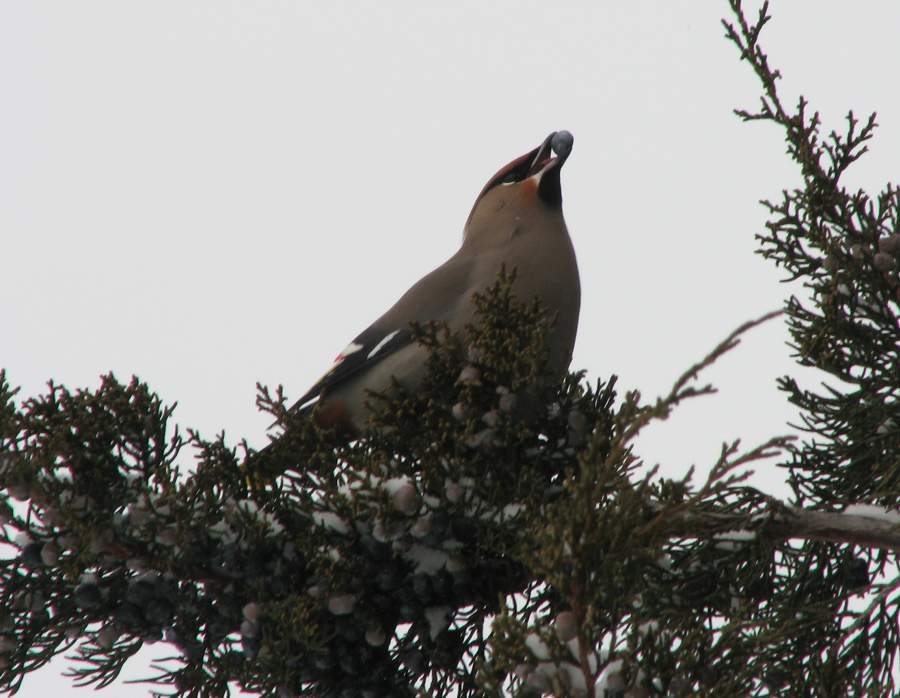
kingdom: Animalia
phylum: Chordata
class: Aves
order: Passeriformes
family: Bombycillidae
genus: Bombycilla
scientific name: Bombycilla garrulus
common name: Bohemian waxwing
